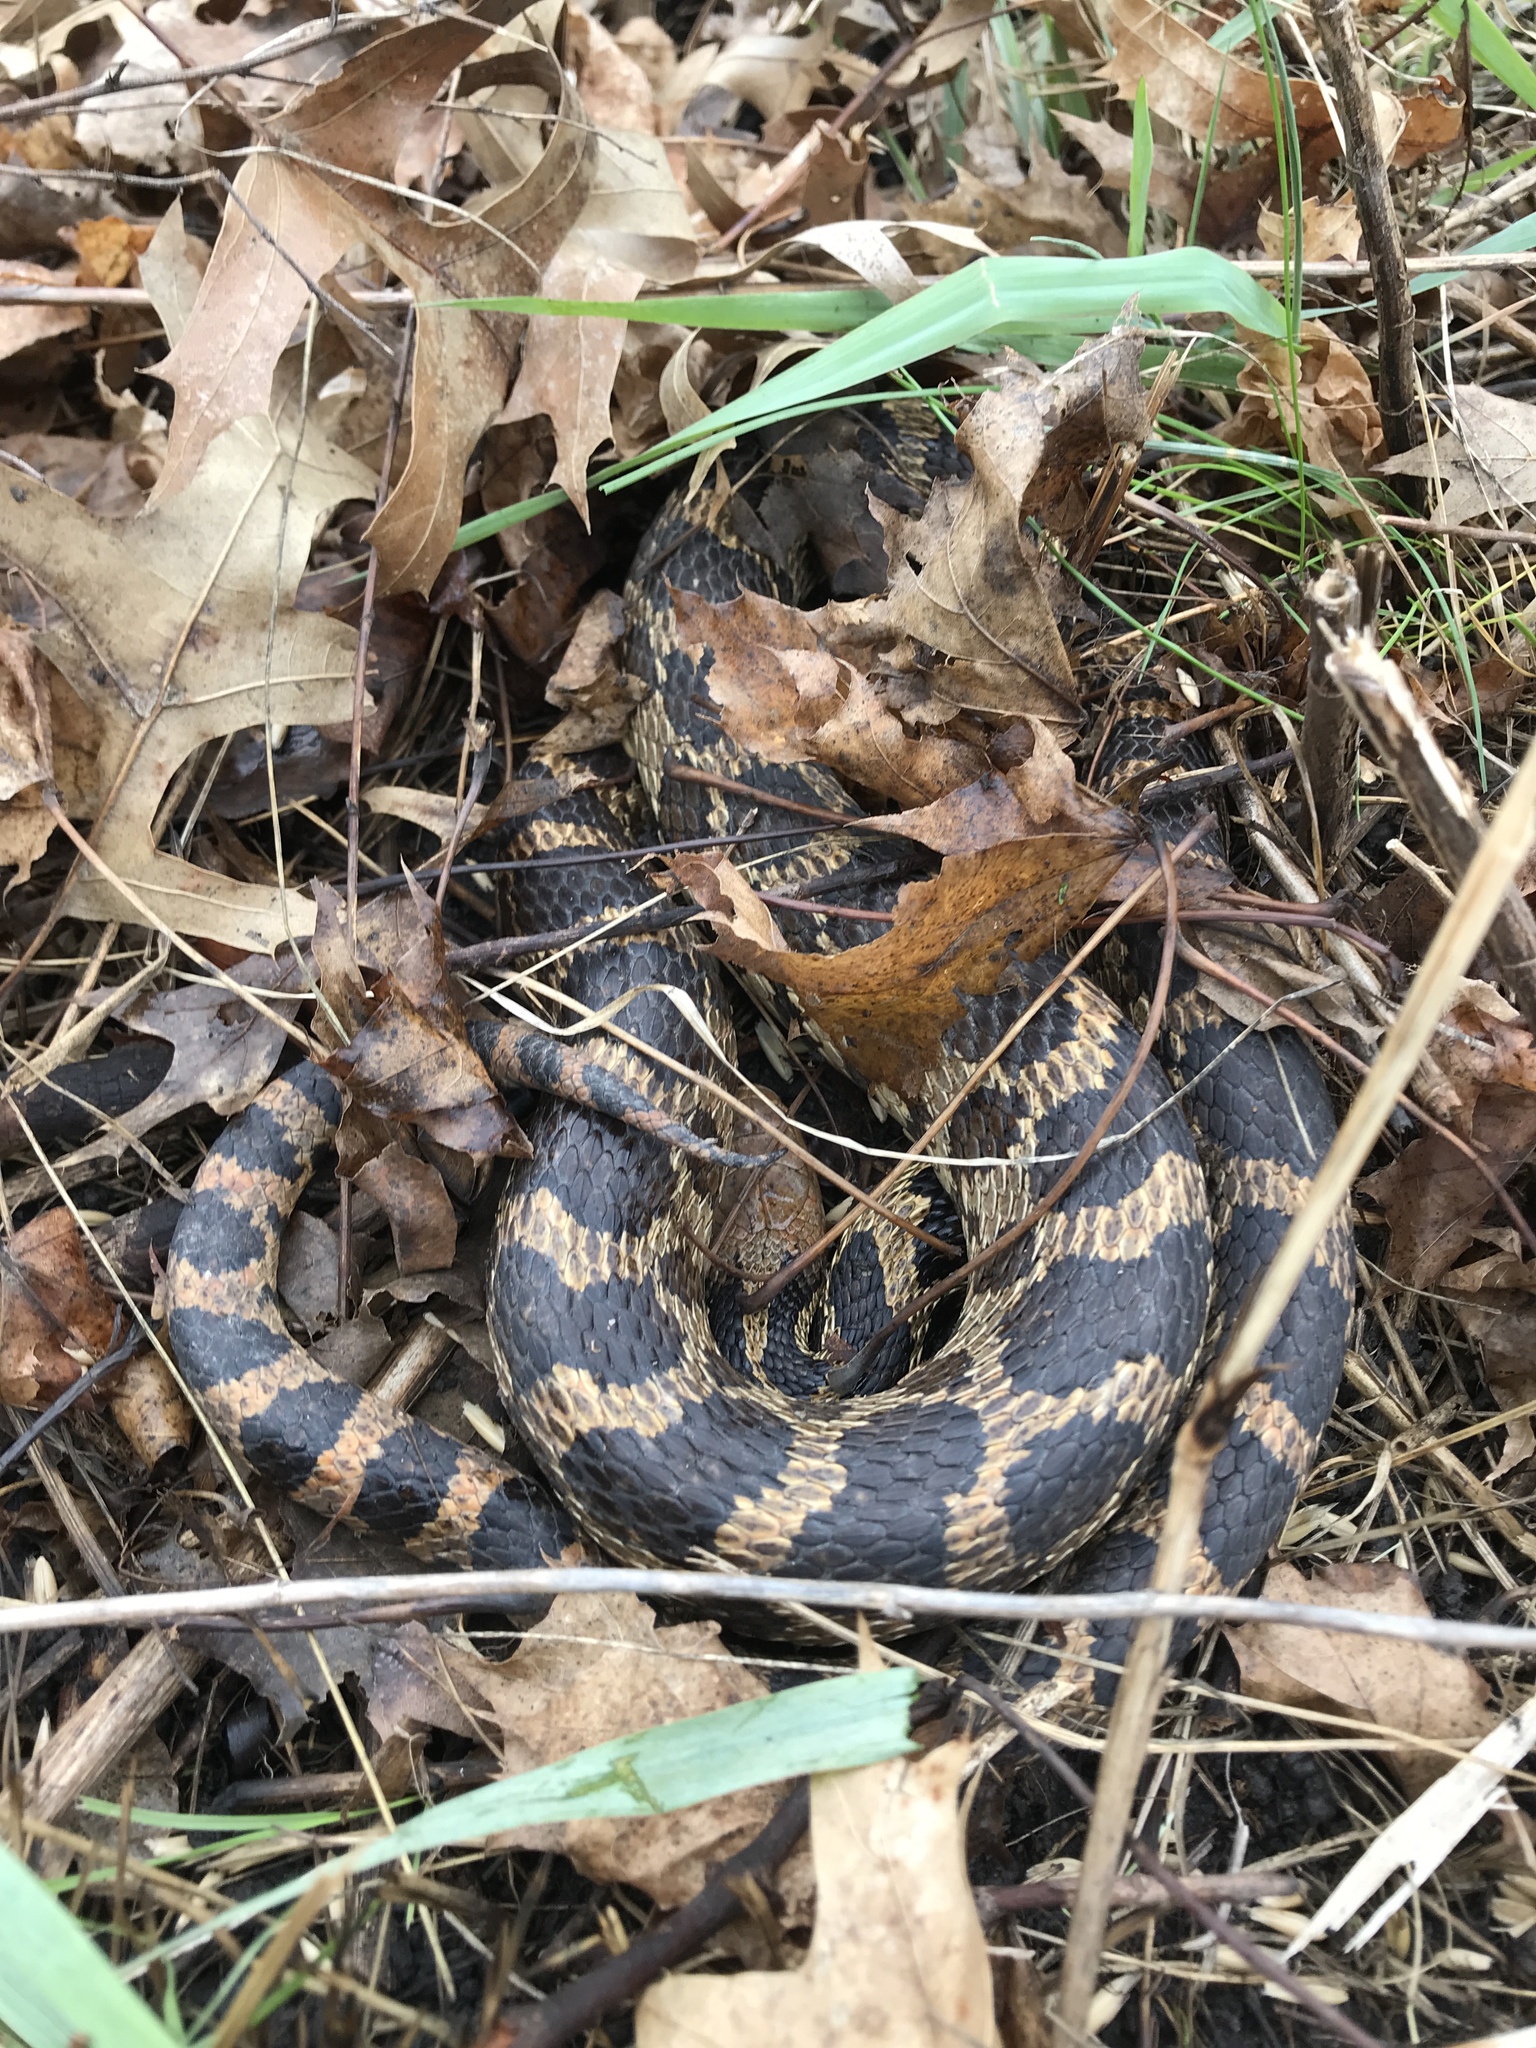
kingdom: Animalia
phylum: Chordata
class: Squamata
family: Colubridae
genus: Pantherophis
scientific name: Pantherophis vulpinus
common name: Eastern fox snake
